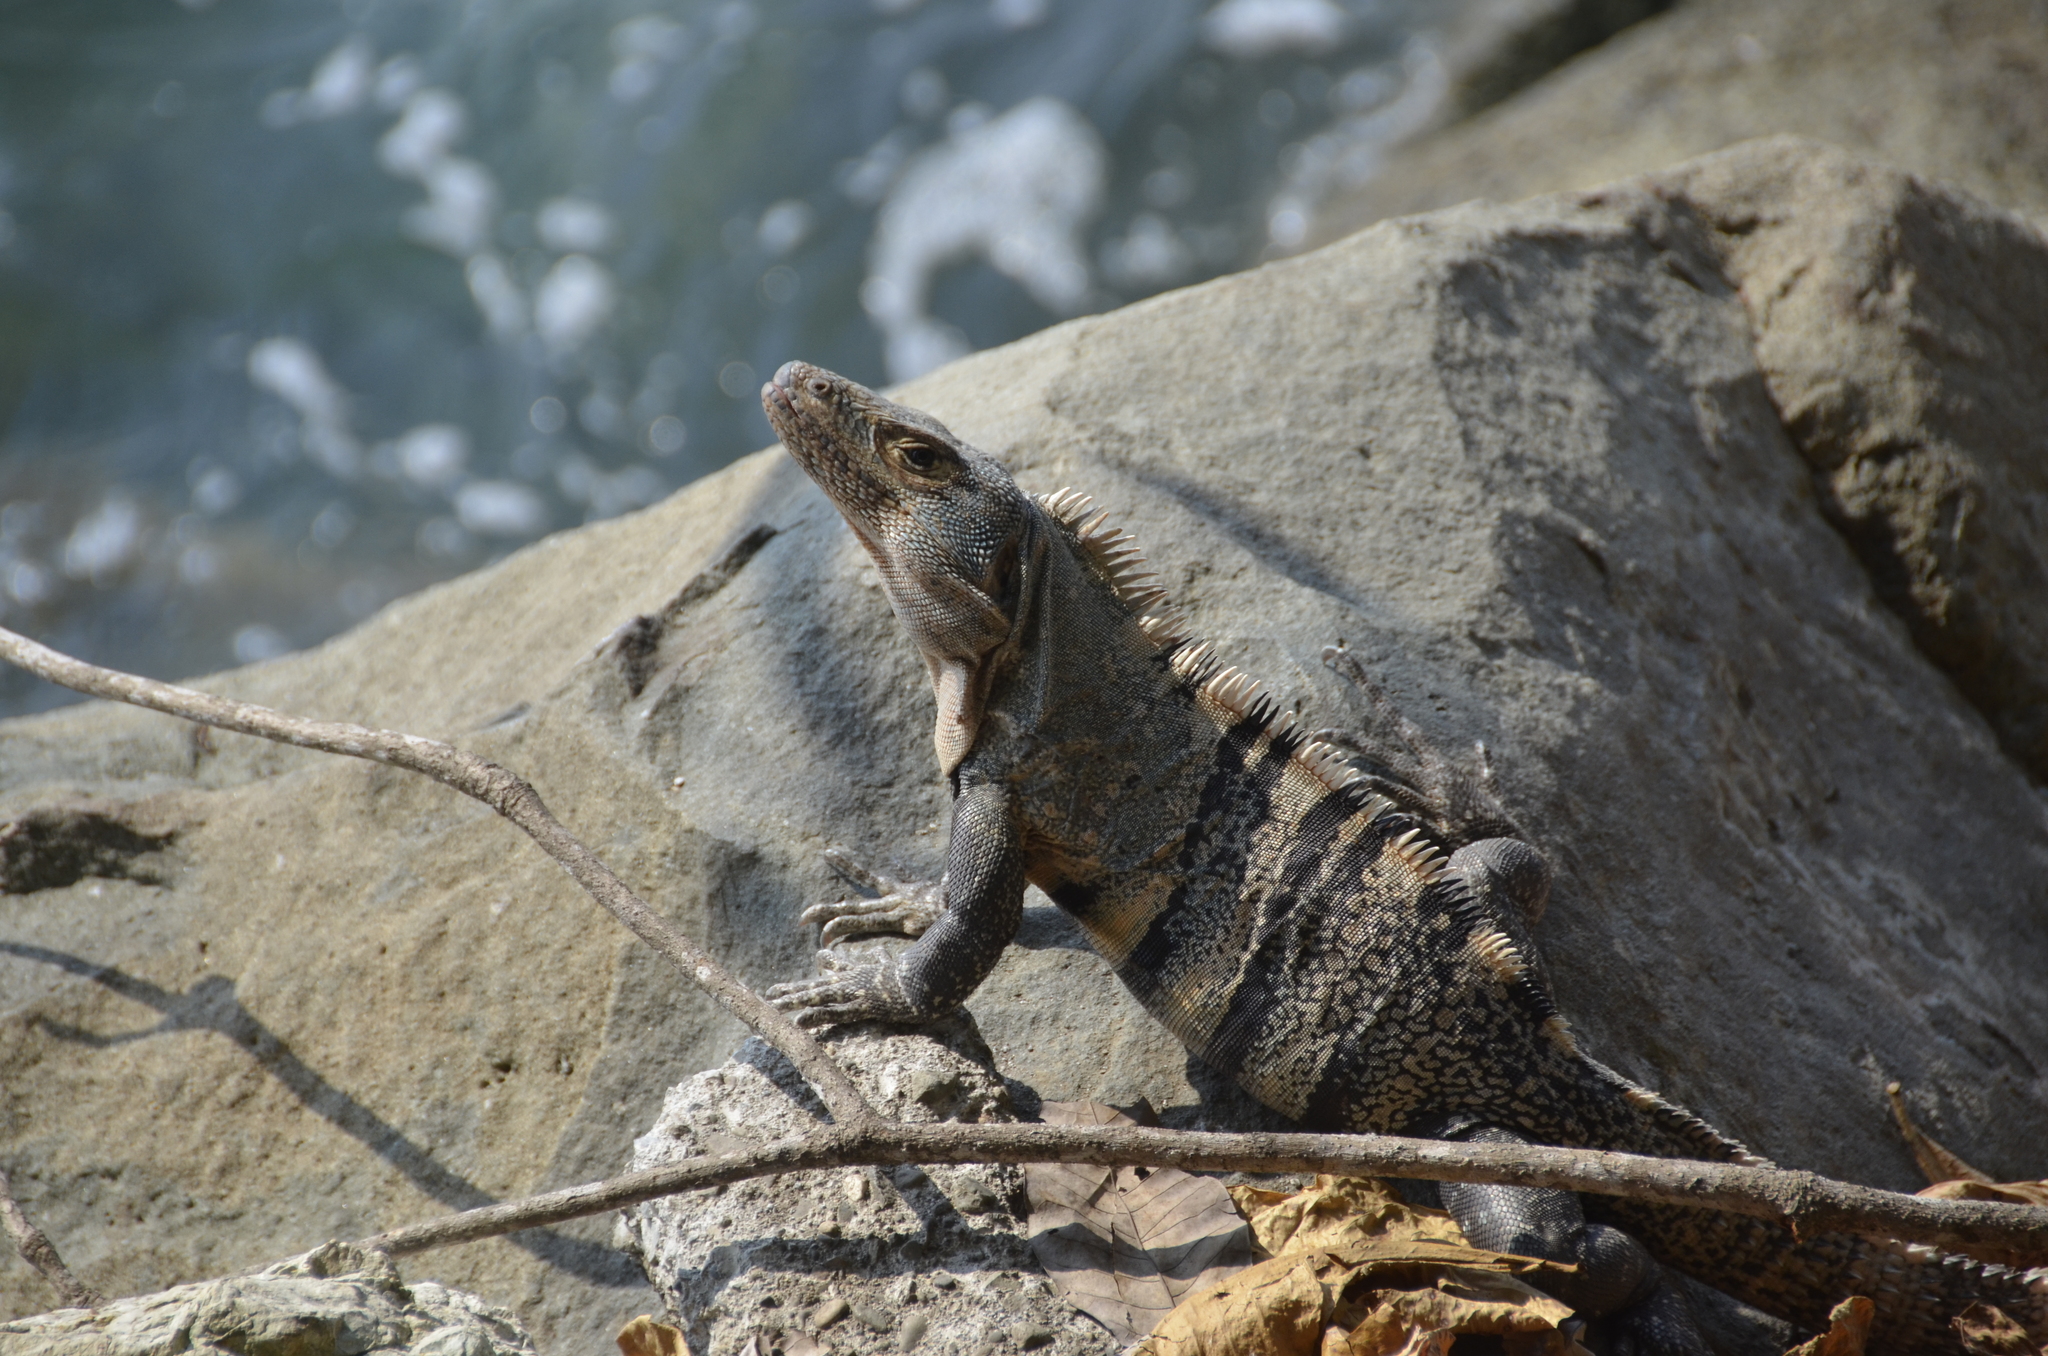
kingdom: Animalia
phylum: Chordata
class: Squamata
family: Iguanidae
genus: Ctenosaura
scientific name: Ctenosaura similis
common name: Black spiny-tailed iguana
